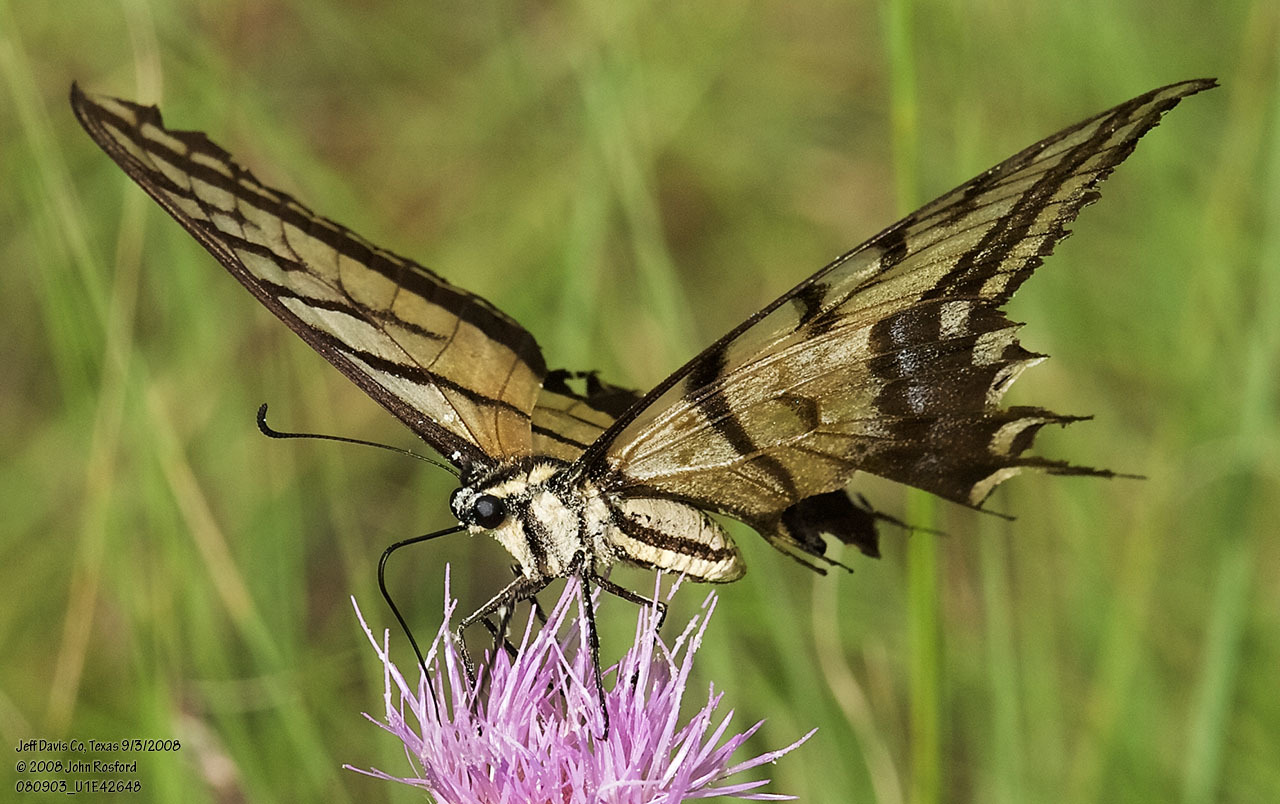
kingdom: Animalia
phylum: Arthropoda
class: Insecta
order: Lepidoptera
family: Papilionidae
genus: Papilio
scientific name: Papilio multicaudata
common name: Two-tailed tiger swallowtail
